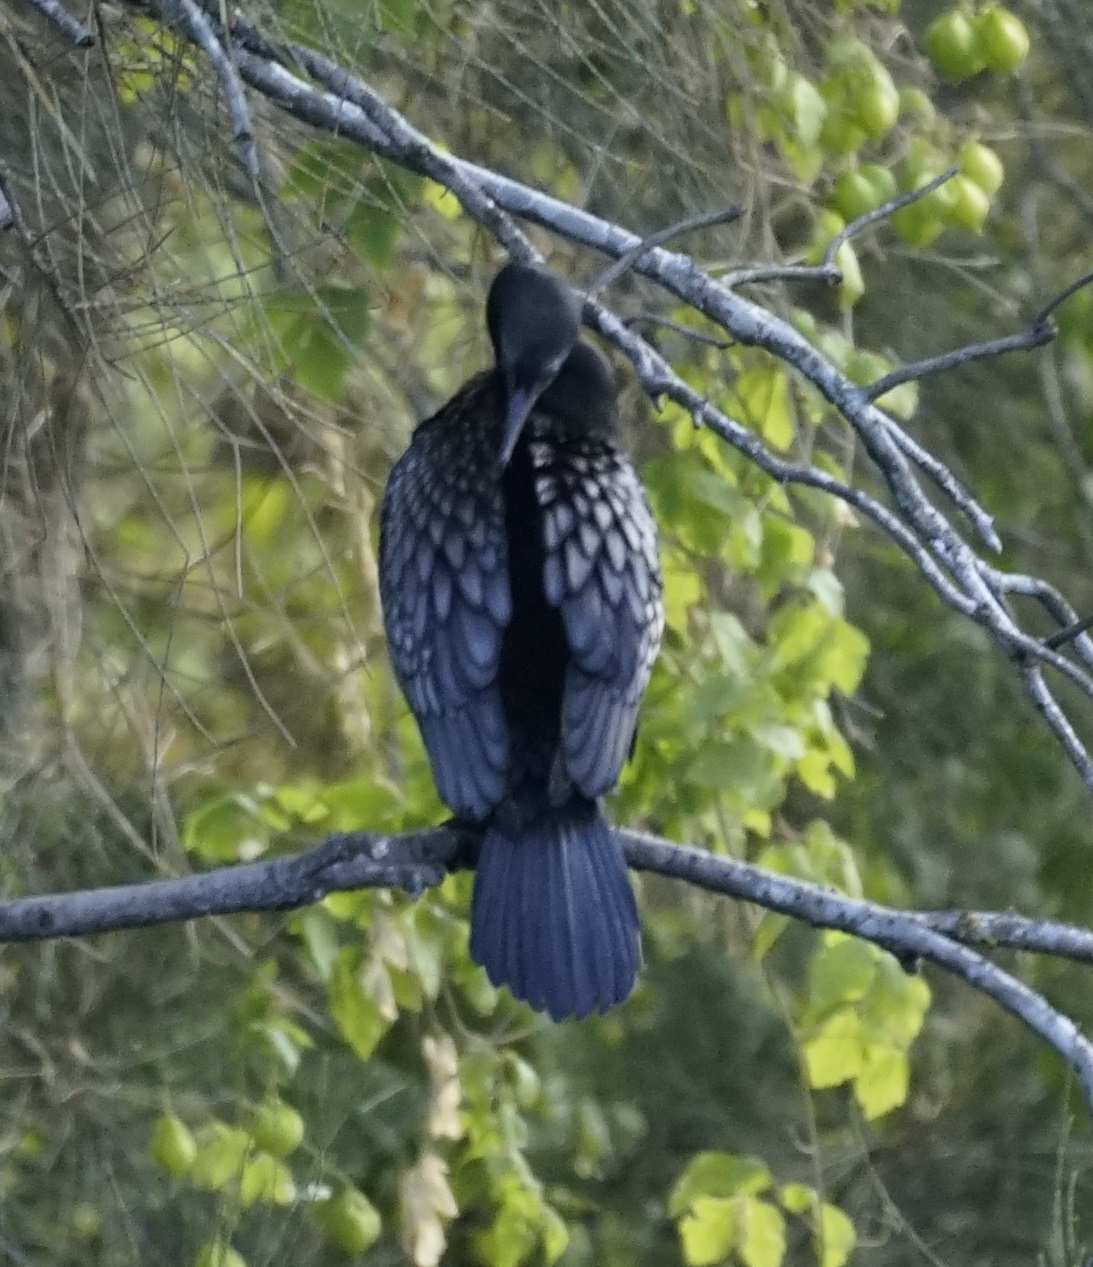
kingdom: Animalia
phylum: Chordata
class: Aves
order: Suliformes
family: Phalacrocoracidae
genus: Phalacrocorax
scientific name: Phalacrocorax sulcirostris
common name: Little black cormorant
